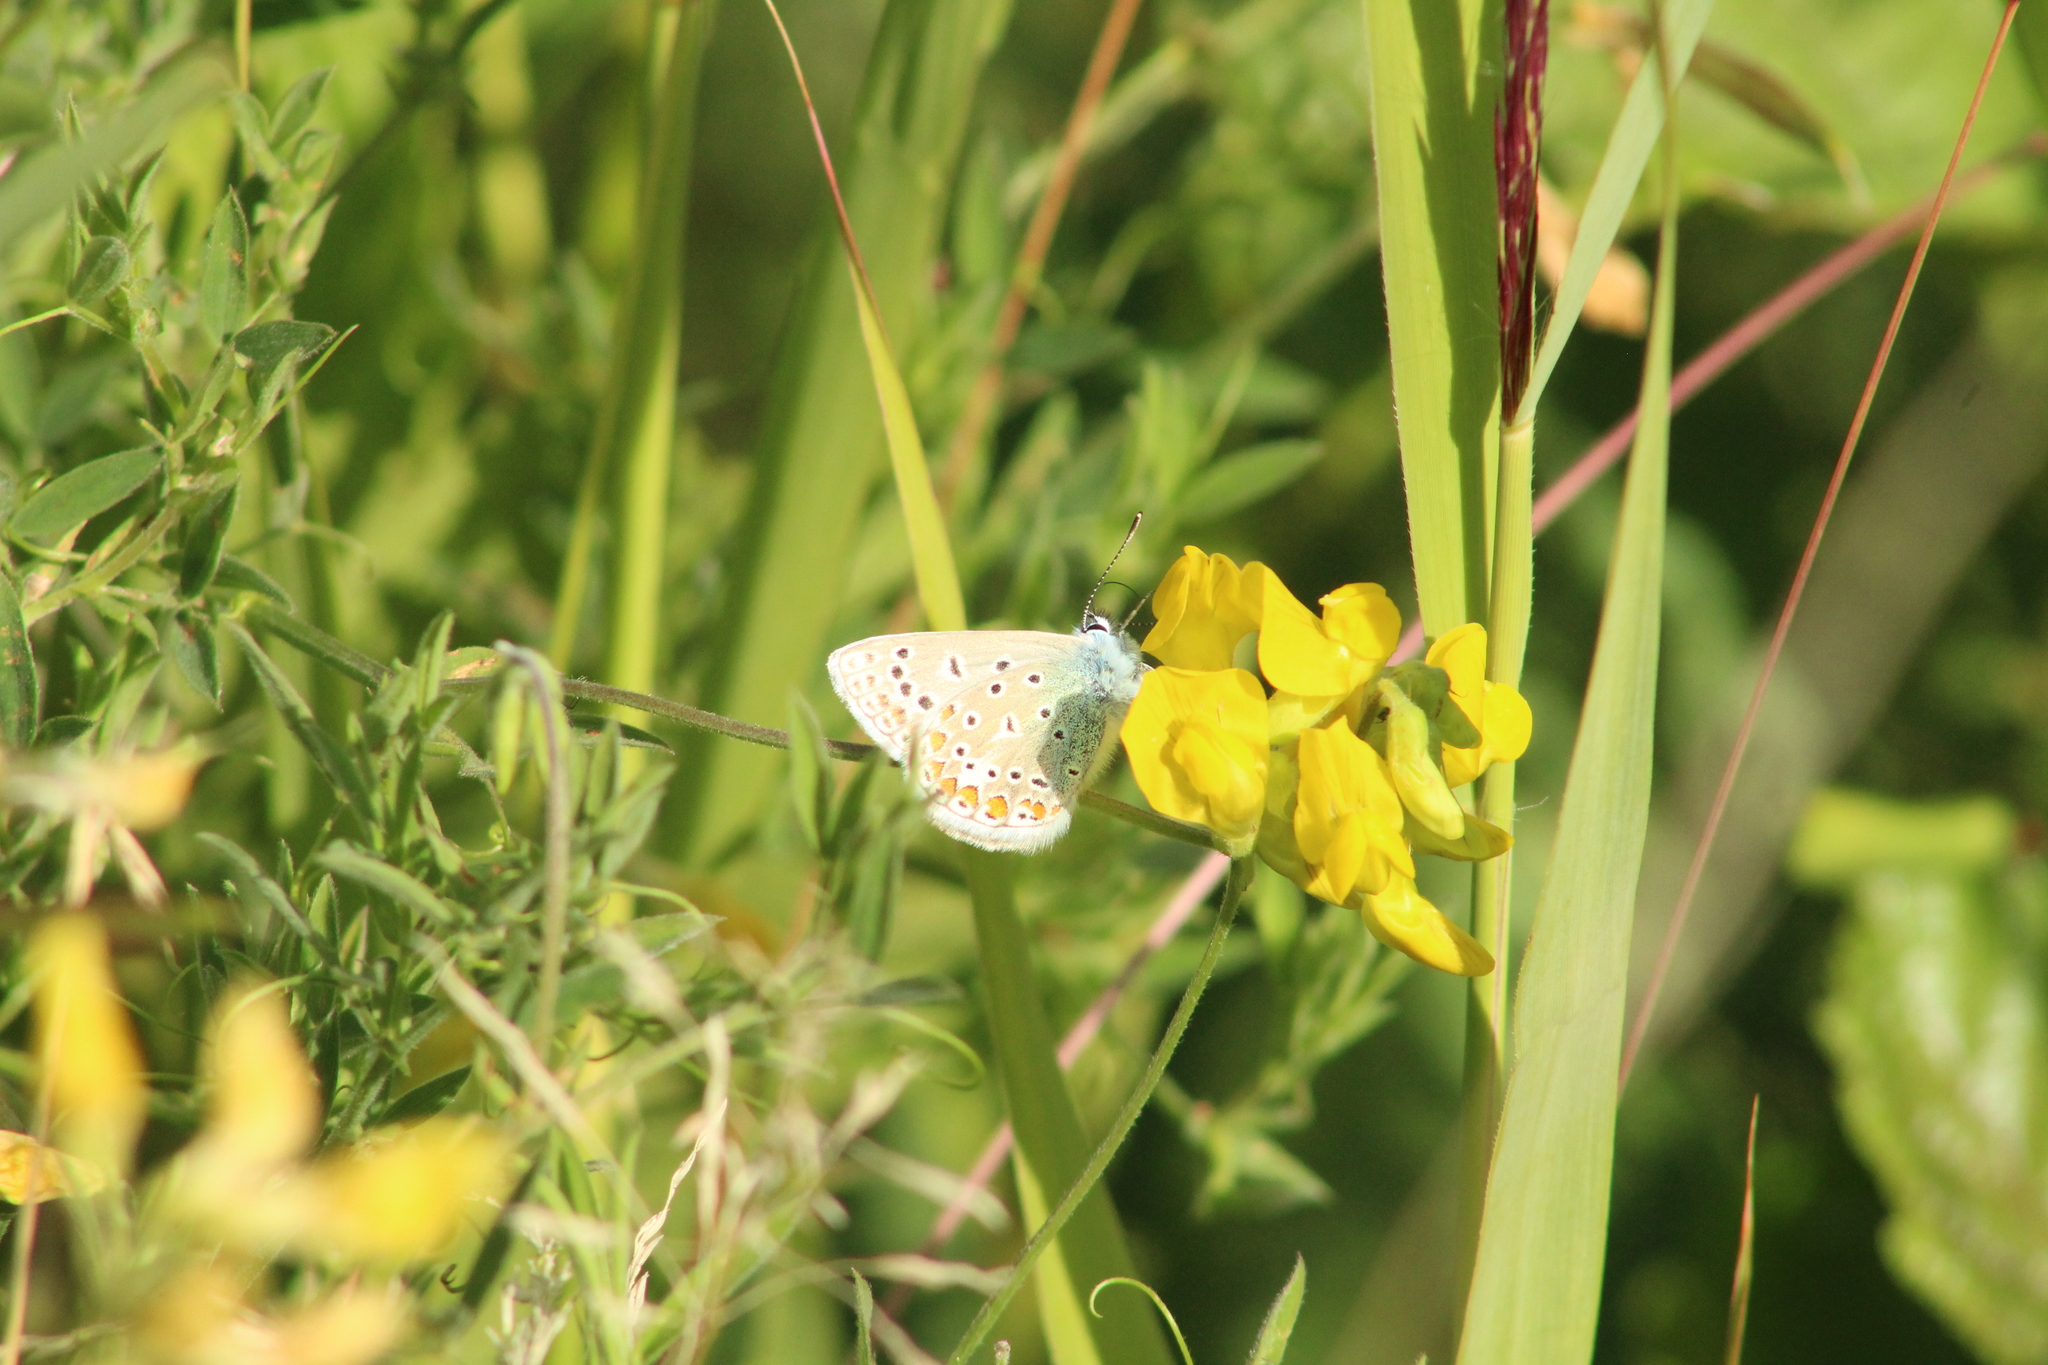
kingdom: Animalia
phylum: Arthropoda
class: Insecta
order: Lepidoptera
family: Lycaenidae
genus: Polyommatus
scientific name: Polyommatus icarus
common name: Common blue
